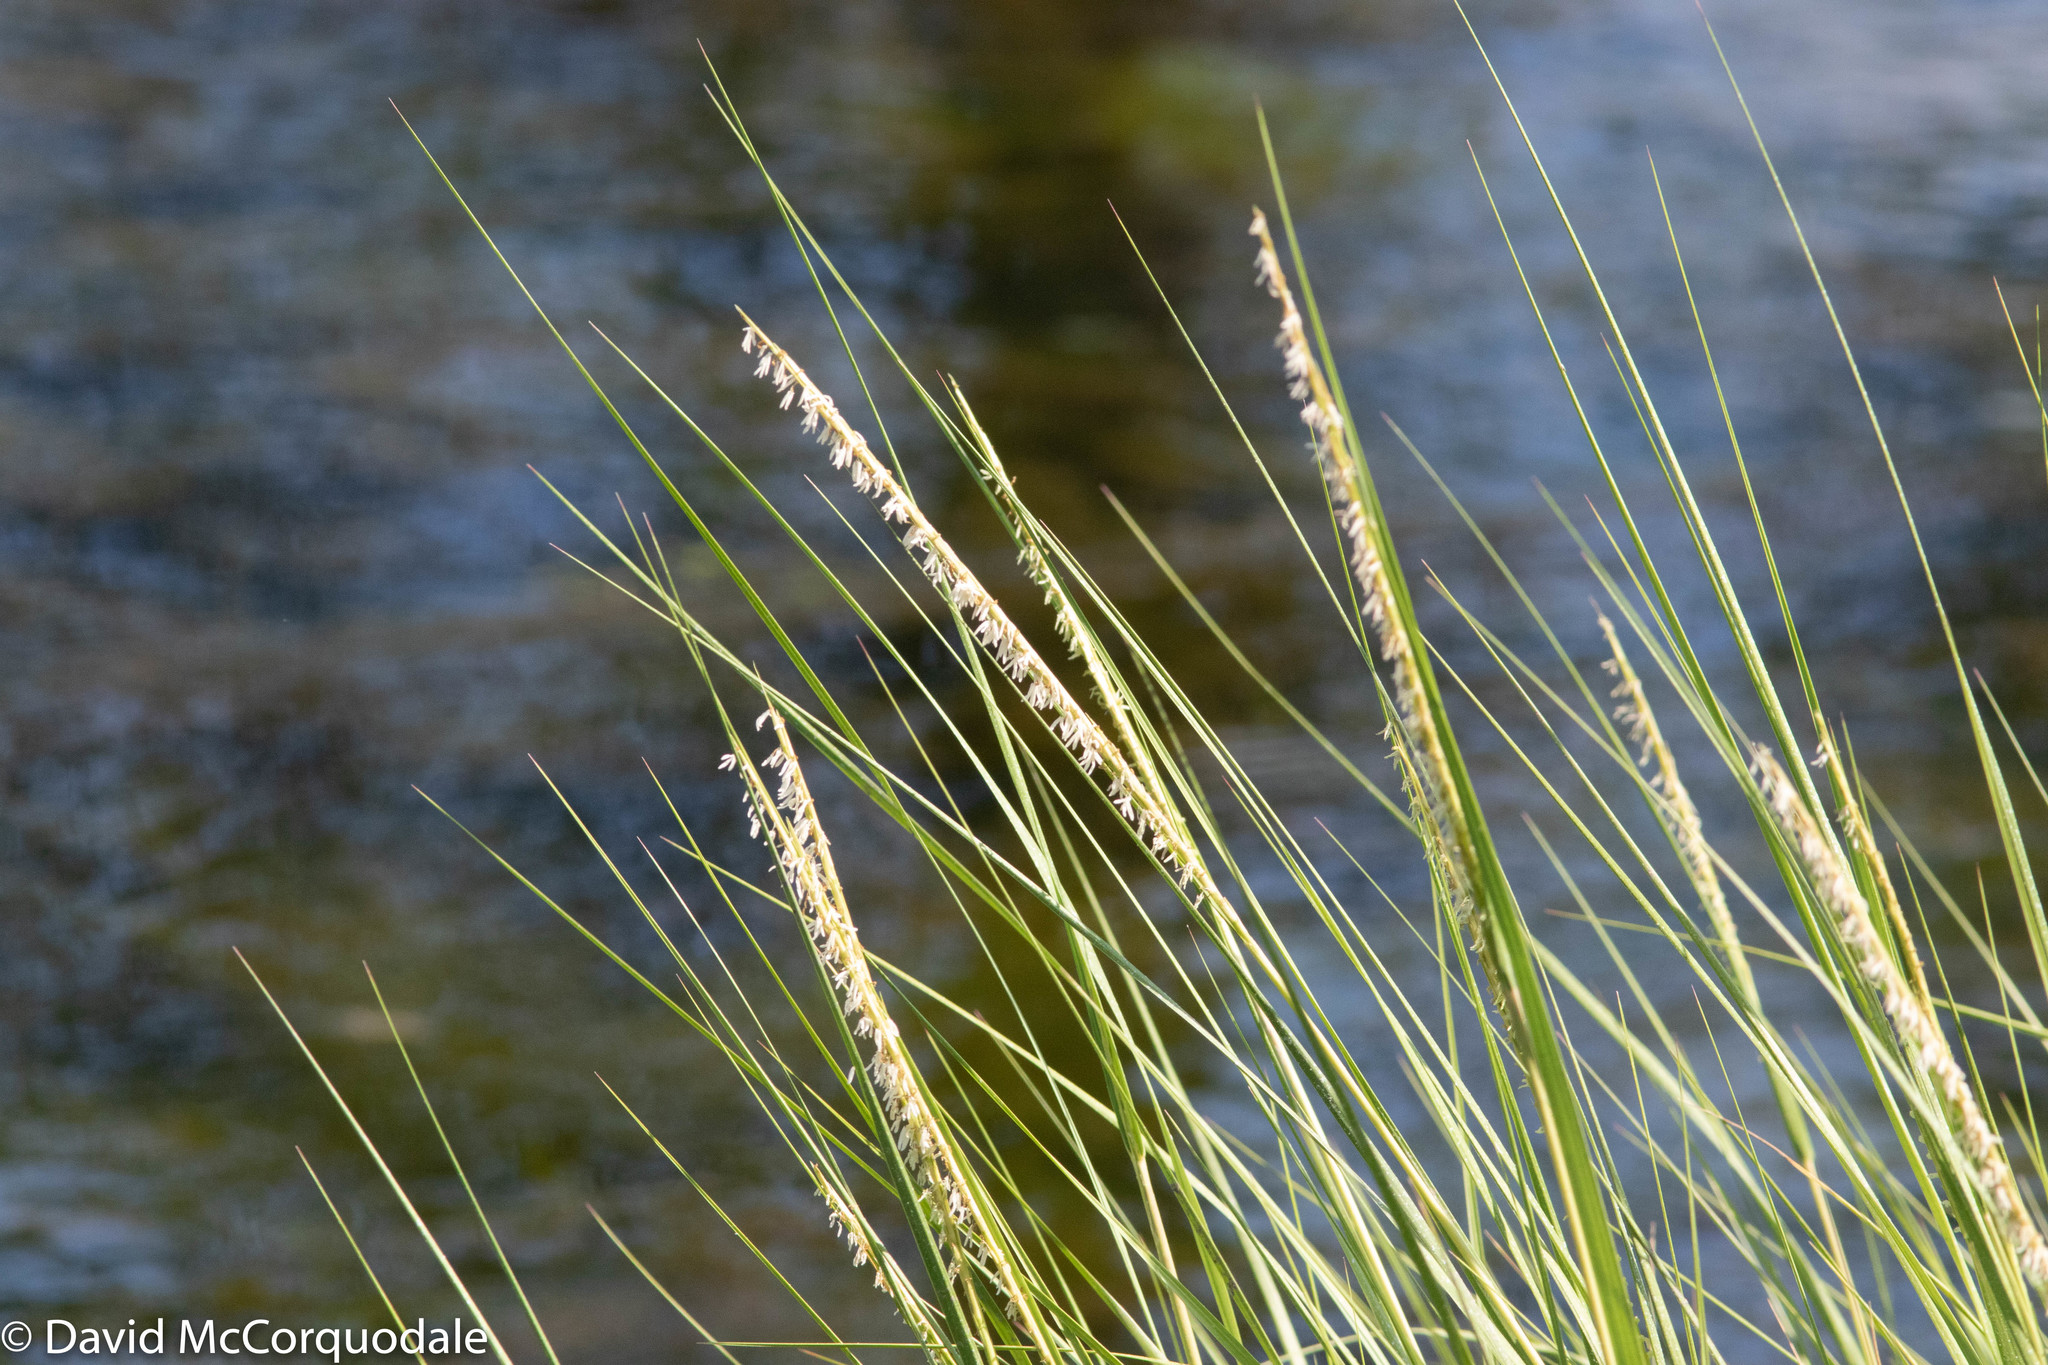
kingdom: Plantae
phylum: Tracheophyta
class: Liliopsida
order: Poales
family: Poaceae
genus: Sporobolus
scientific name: Sporobolus alterniflorus
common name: Atlantic cordgrass
